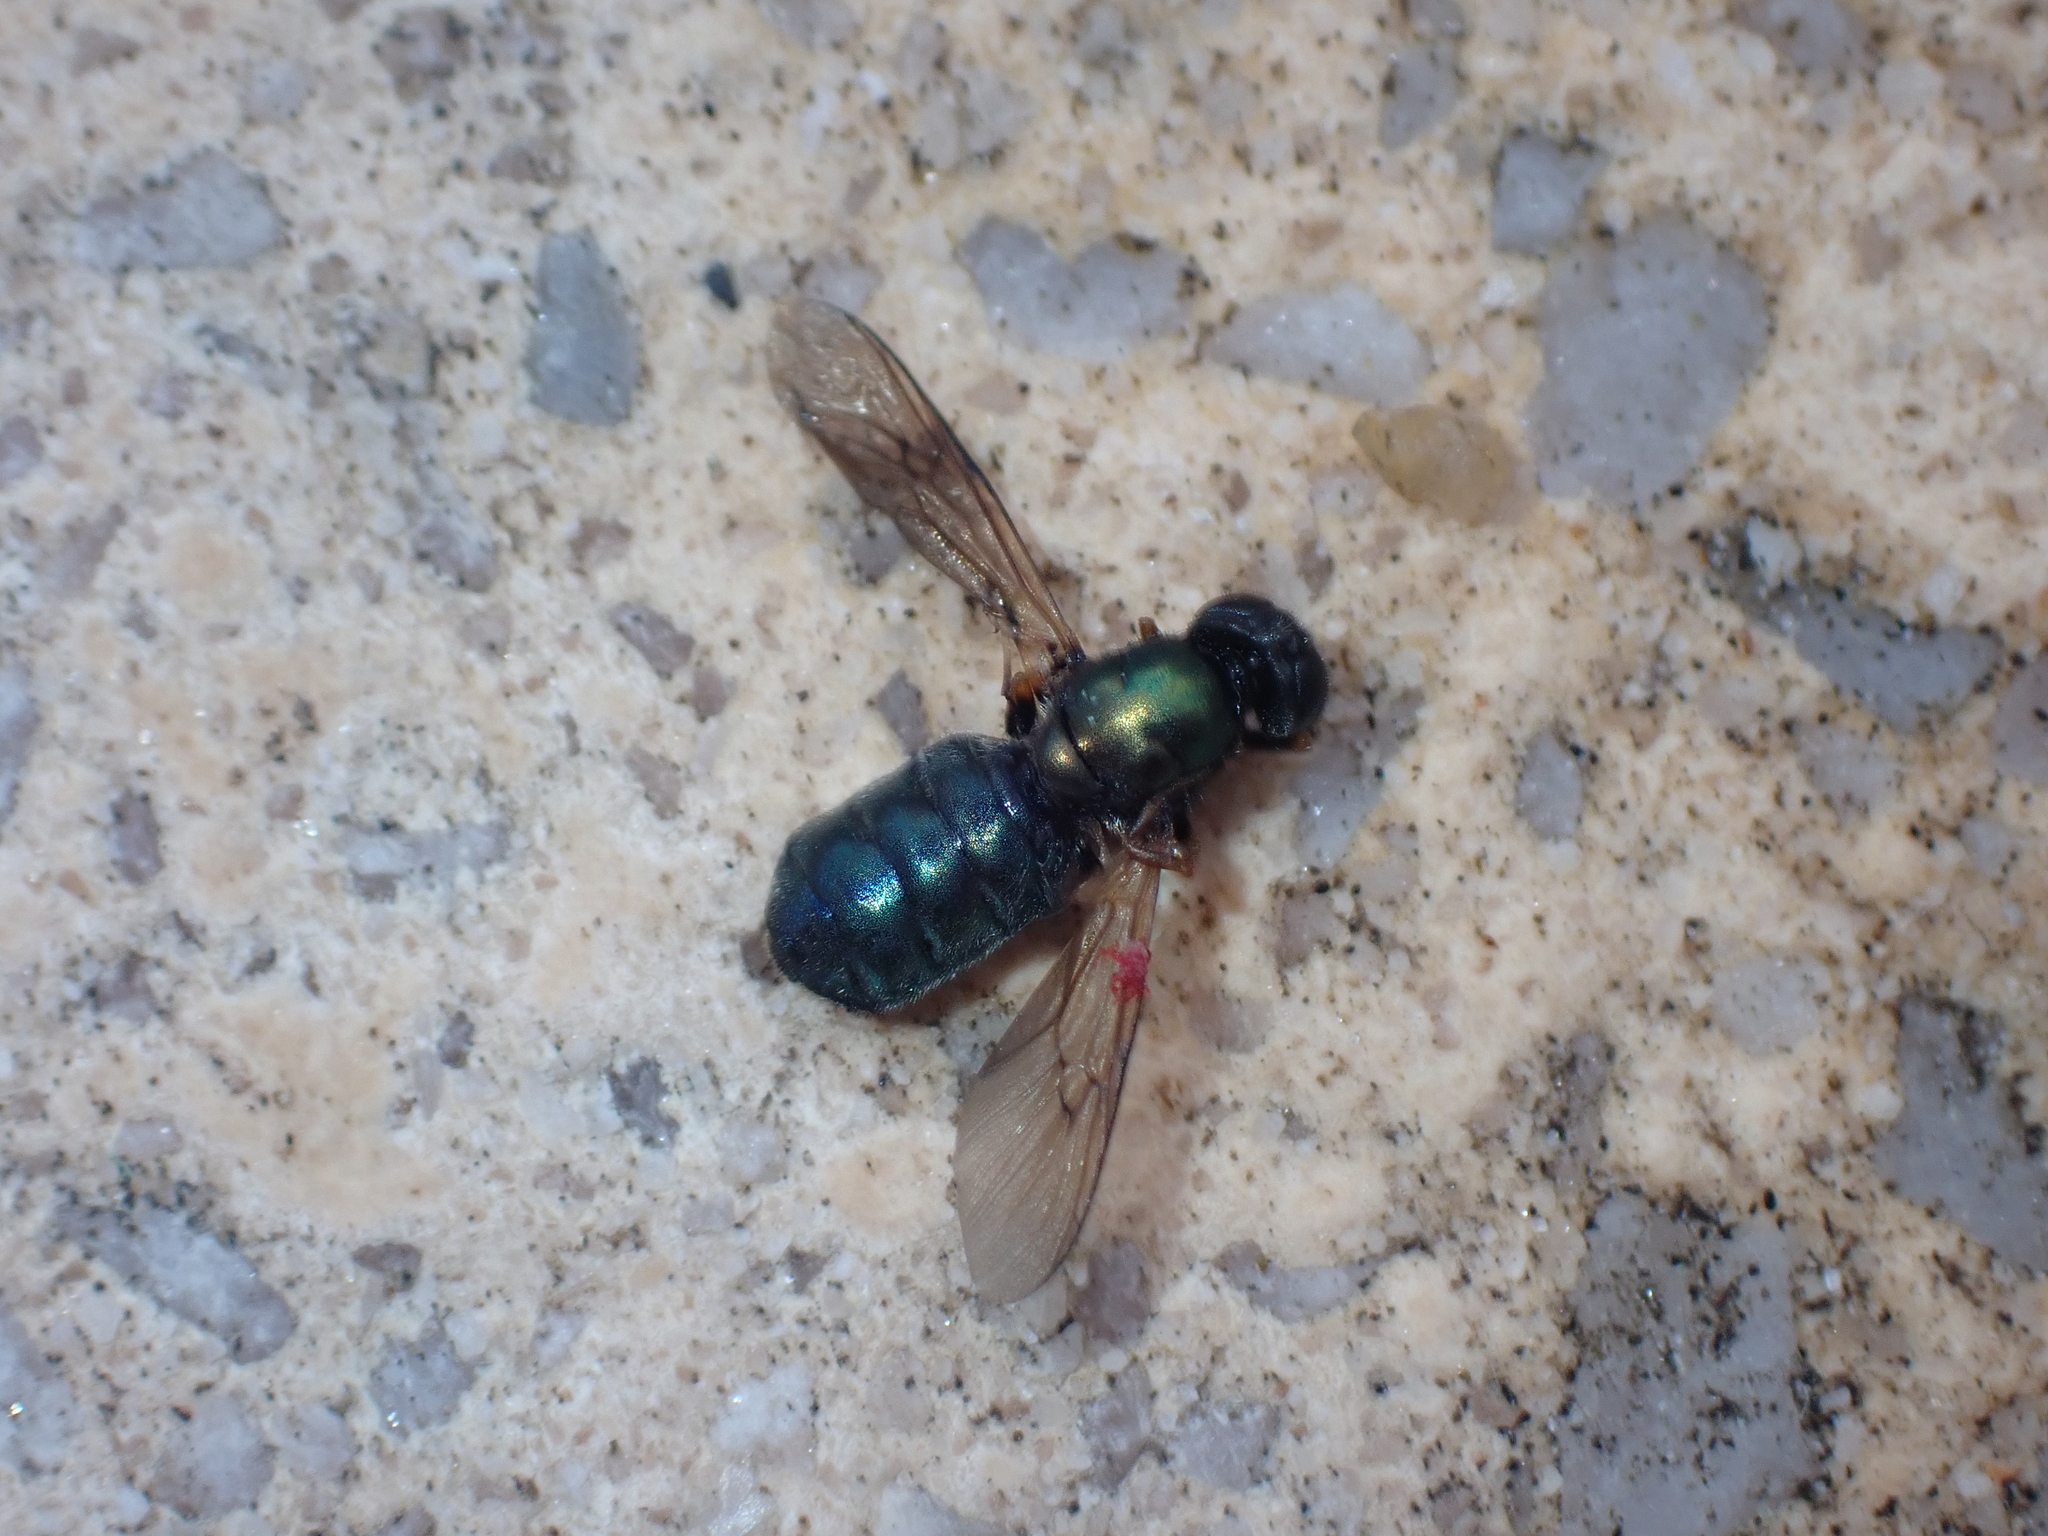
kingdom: Animalia
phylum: Arthropoda
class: Insecta
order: Diptera
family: Stratiomyidae
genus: Chloromyia
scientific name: Chloromyia formosa
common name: Soldier fly
